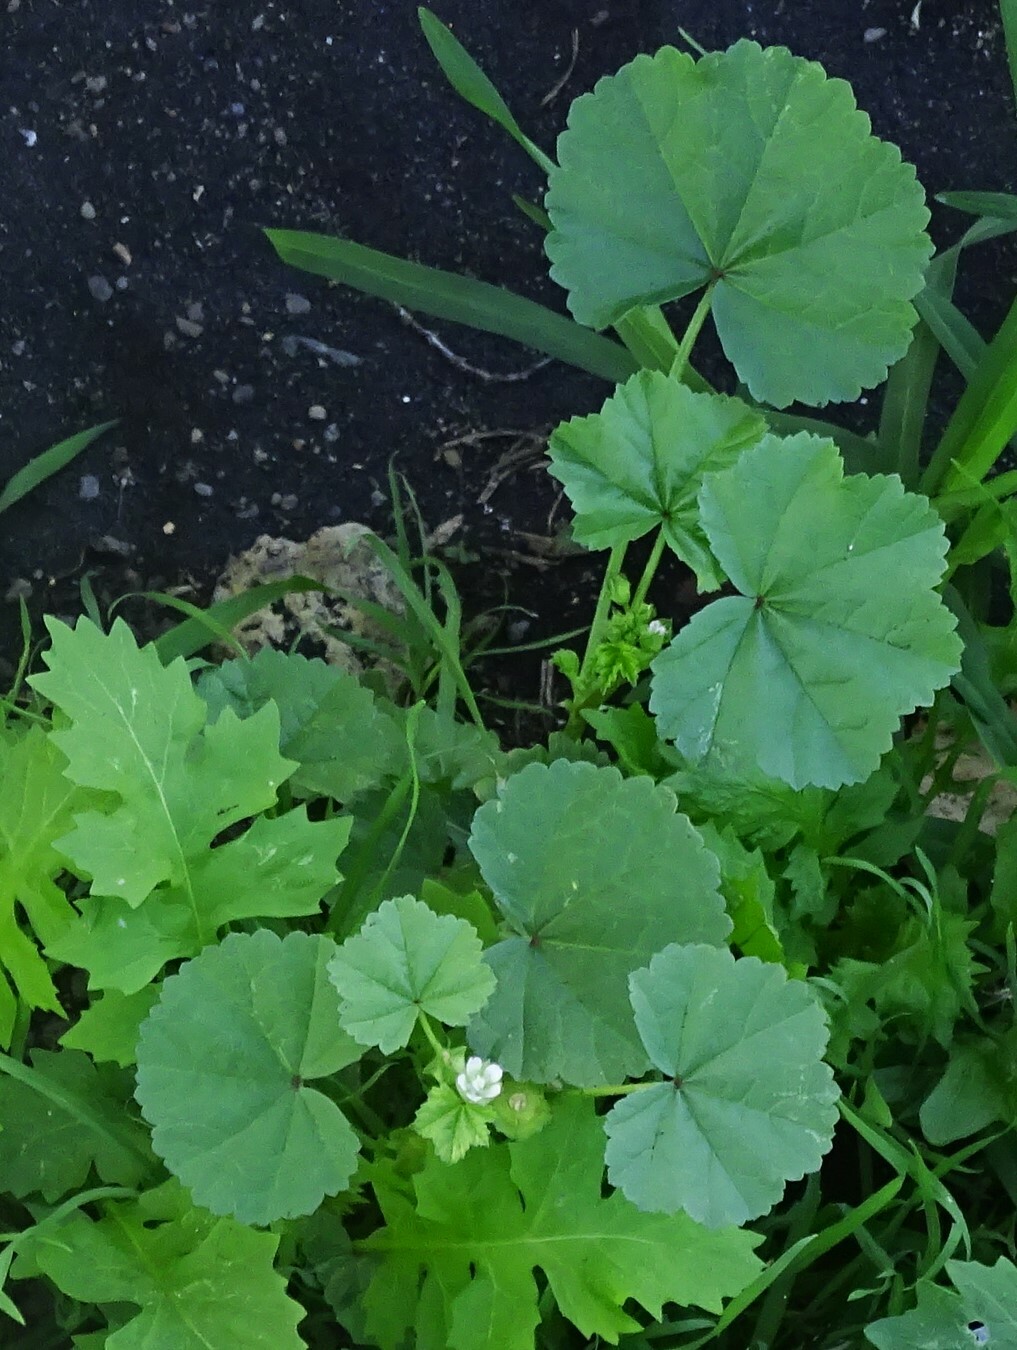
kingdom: Plantae
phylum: Tracheophyta
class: Magnoliopsida
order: Malvales
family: Malvaceae
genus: Malva
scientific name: Malva parviflora
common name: Least mallow
